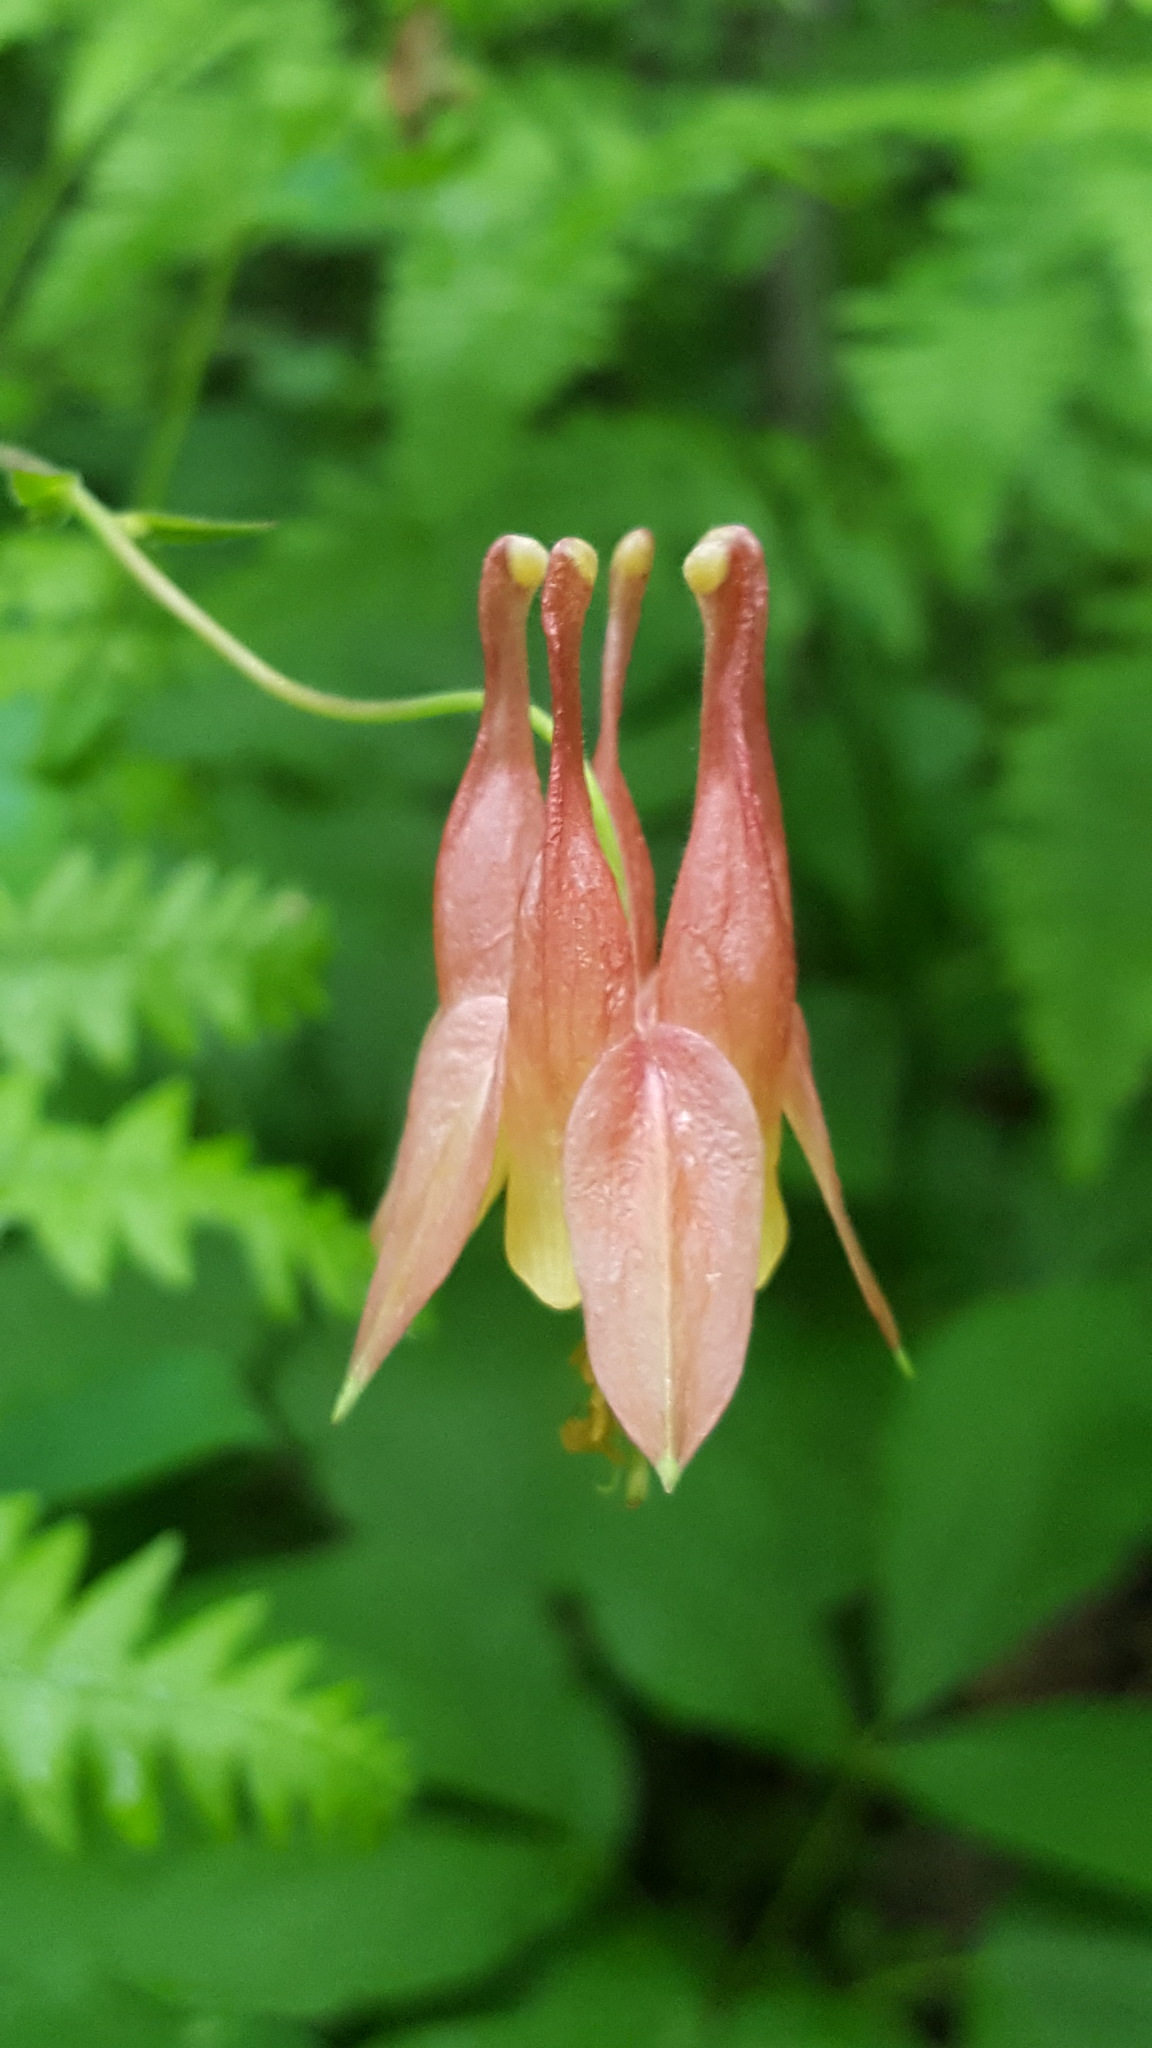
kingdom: Plantae
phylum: Tracheophyta
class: Magnoliopsida
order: Ranunculales
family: Ranunculaceae
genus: Aquilegia
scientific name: Aquilegia canadensis
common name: American columbine
